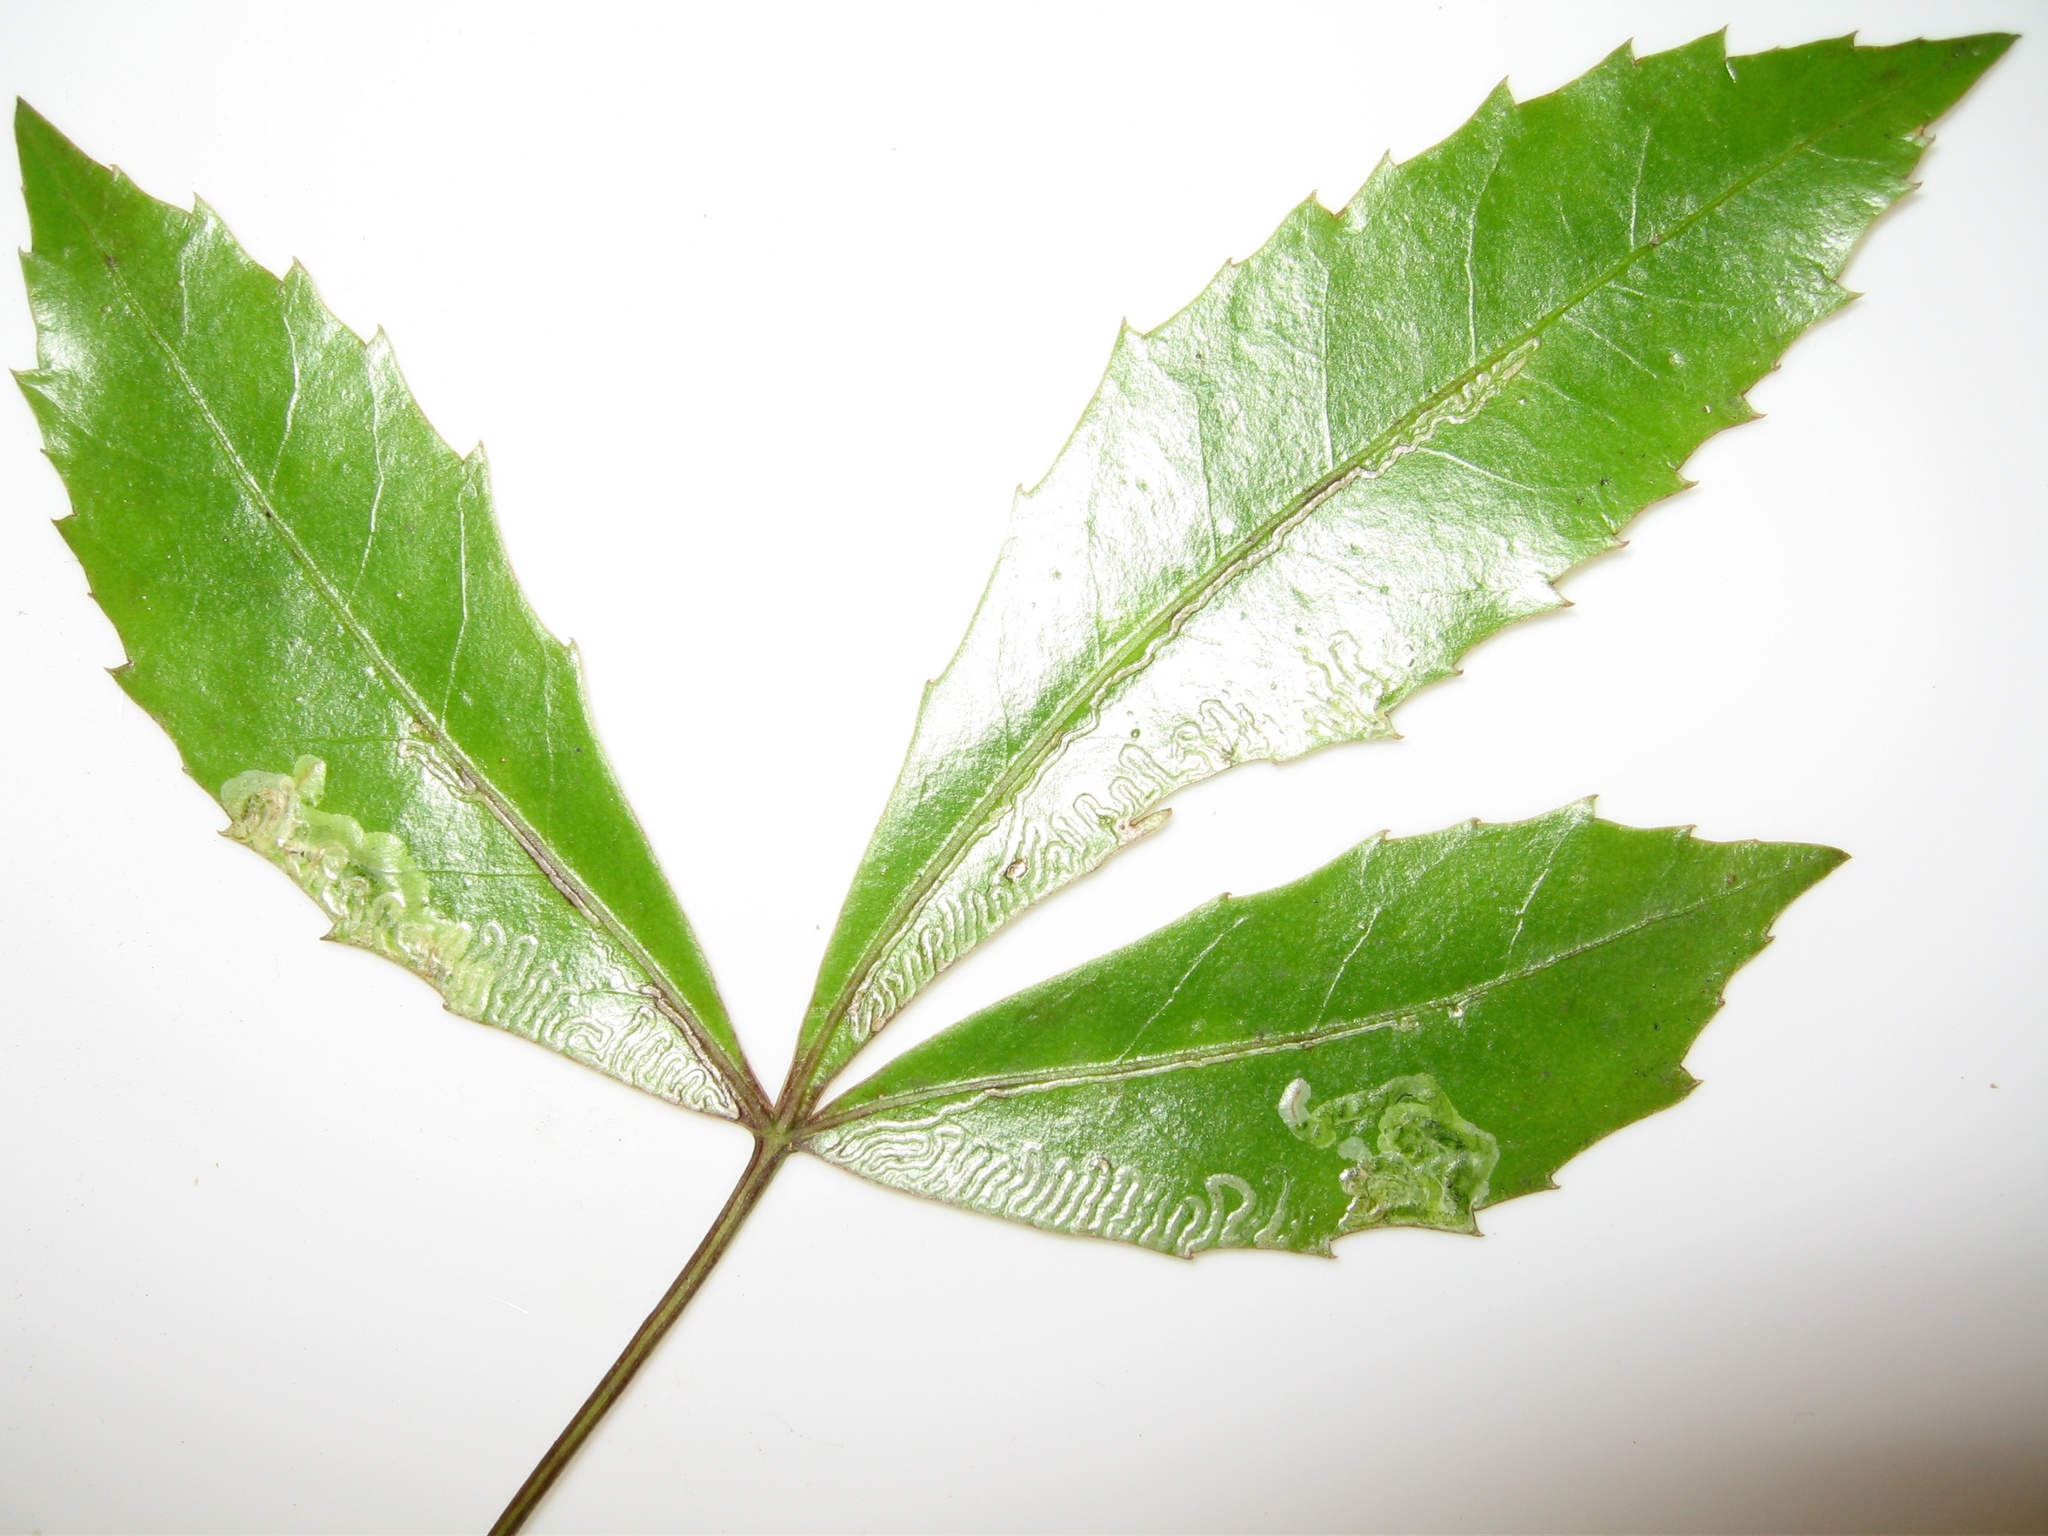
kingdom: Animalia
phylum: Arthropoda
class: Insecta
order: Lepidoptera
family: Gracillariidae
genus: Eumetriochroa
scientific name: Eumetriochroa panacivermiforma
